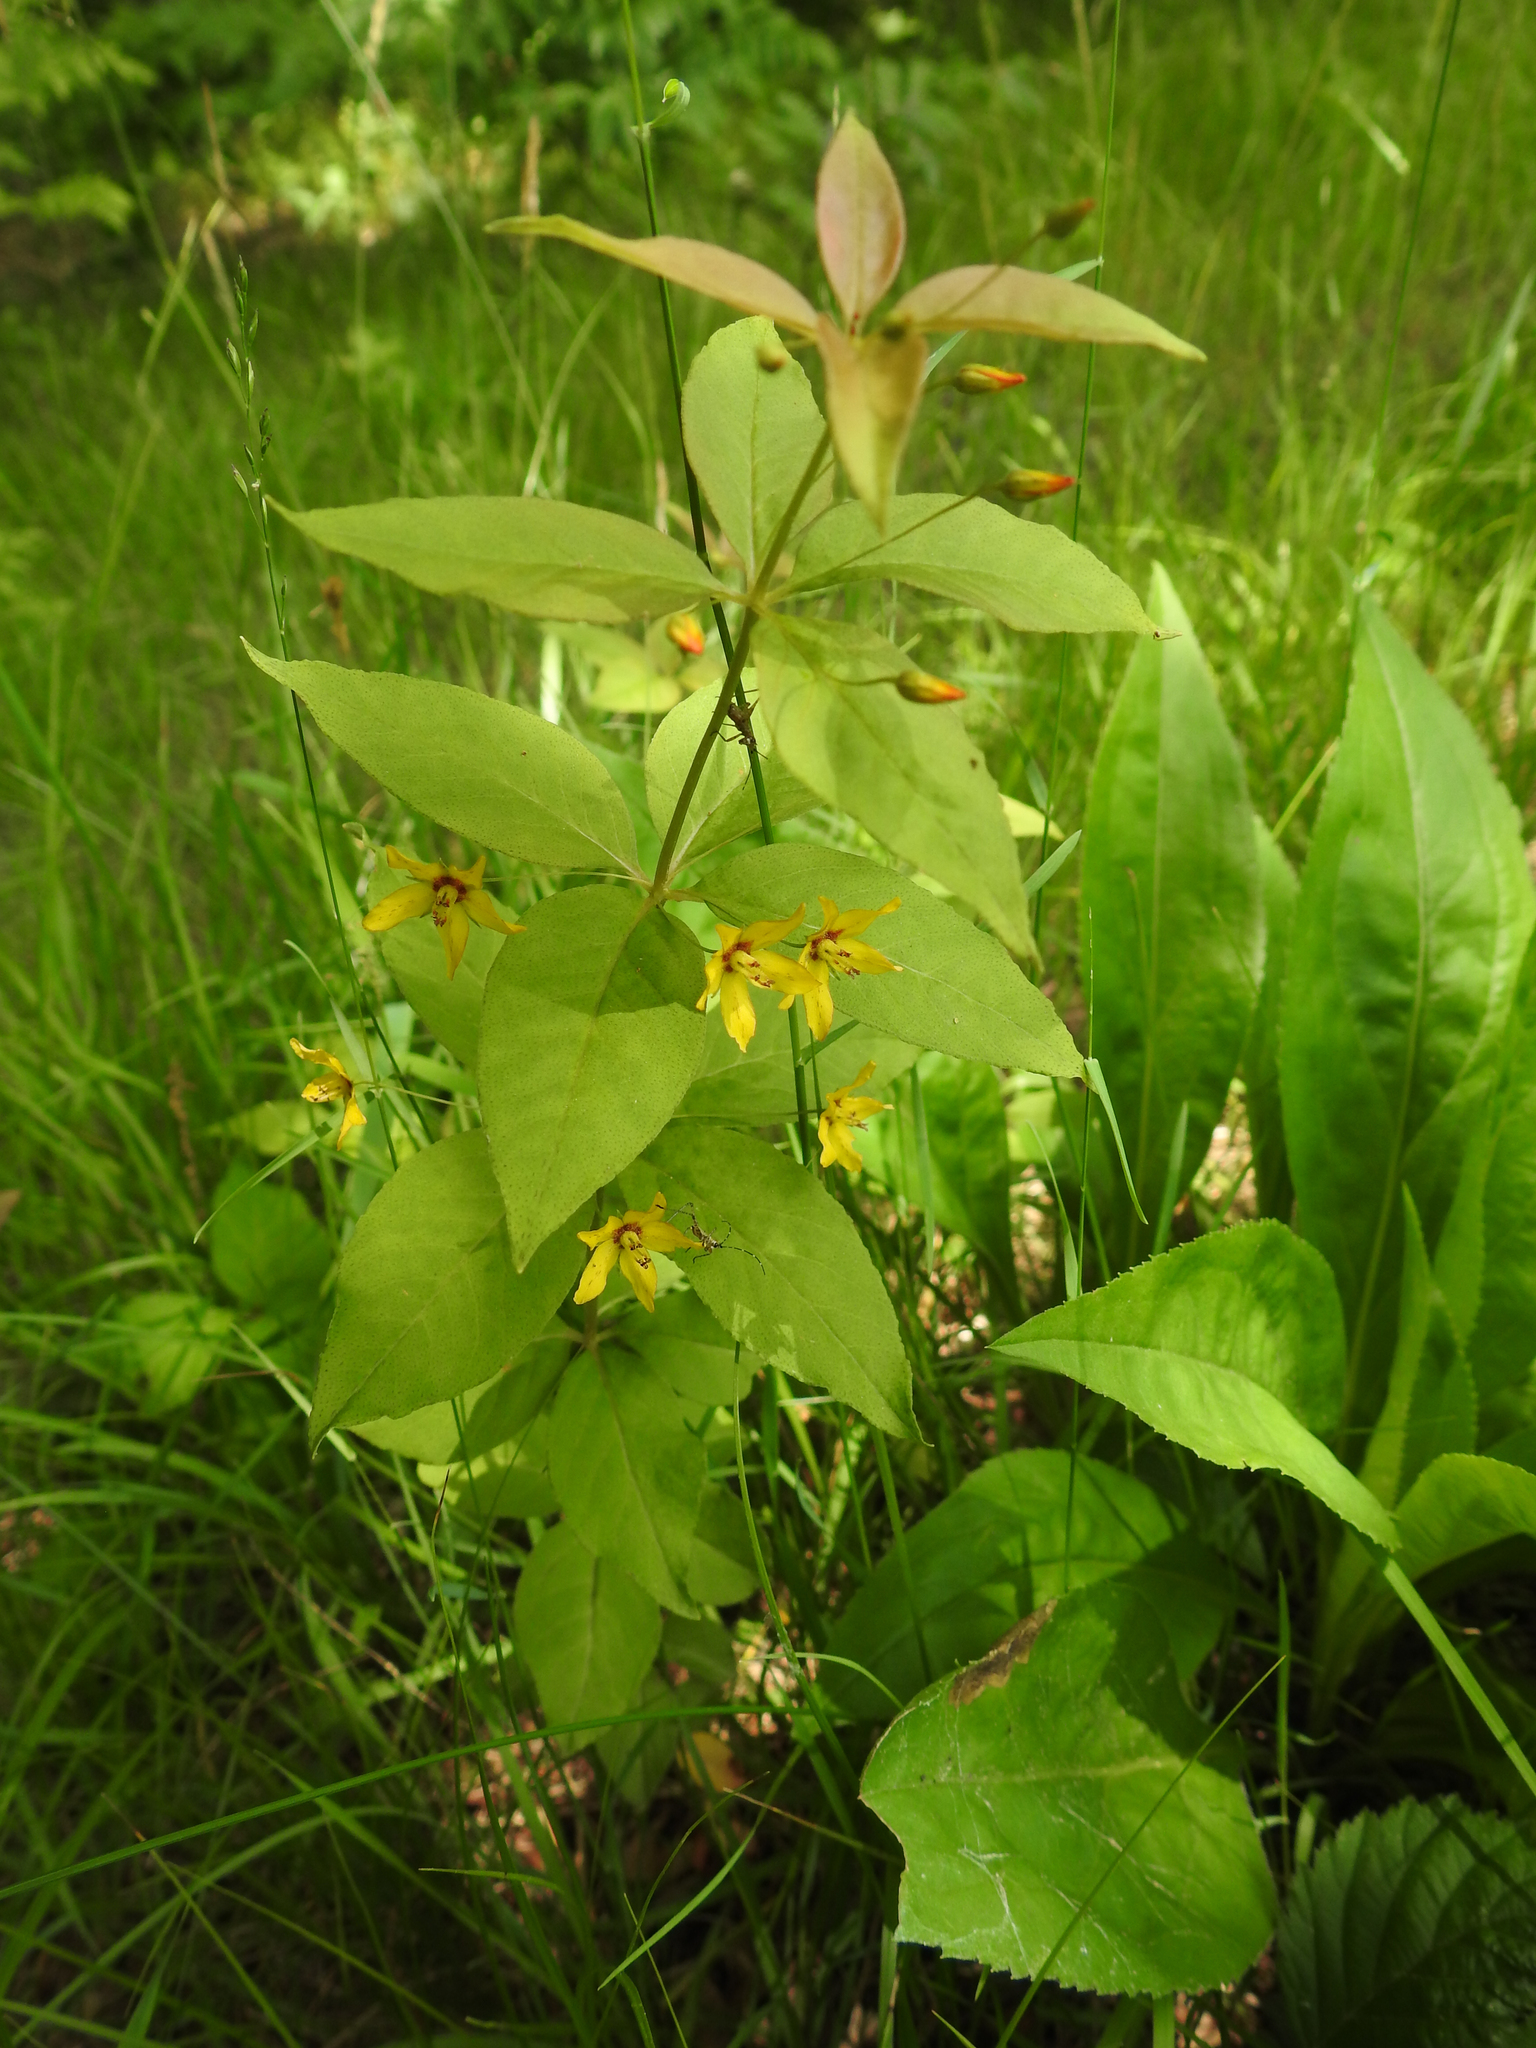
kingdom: Plantae
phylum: Tracheophyta
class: Magnoliopsida
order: Ericales
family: Primulaceae
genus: Lysimachia
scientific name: Lysimachia quadrifolia
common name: Whorled loosestrife
